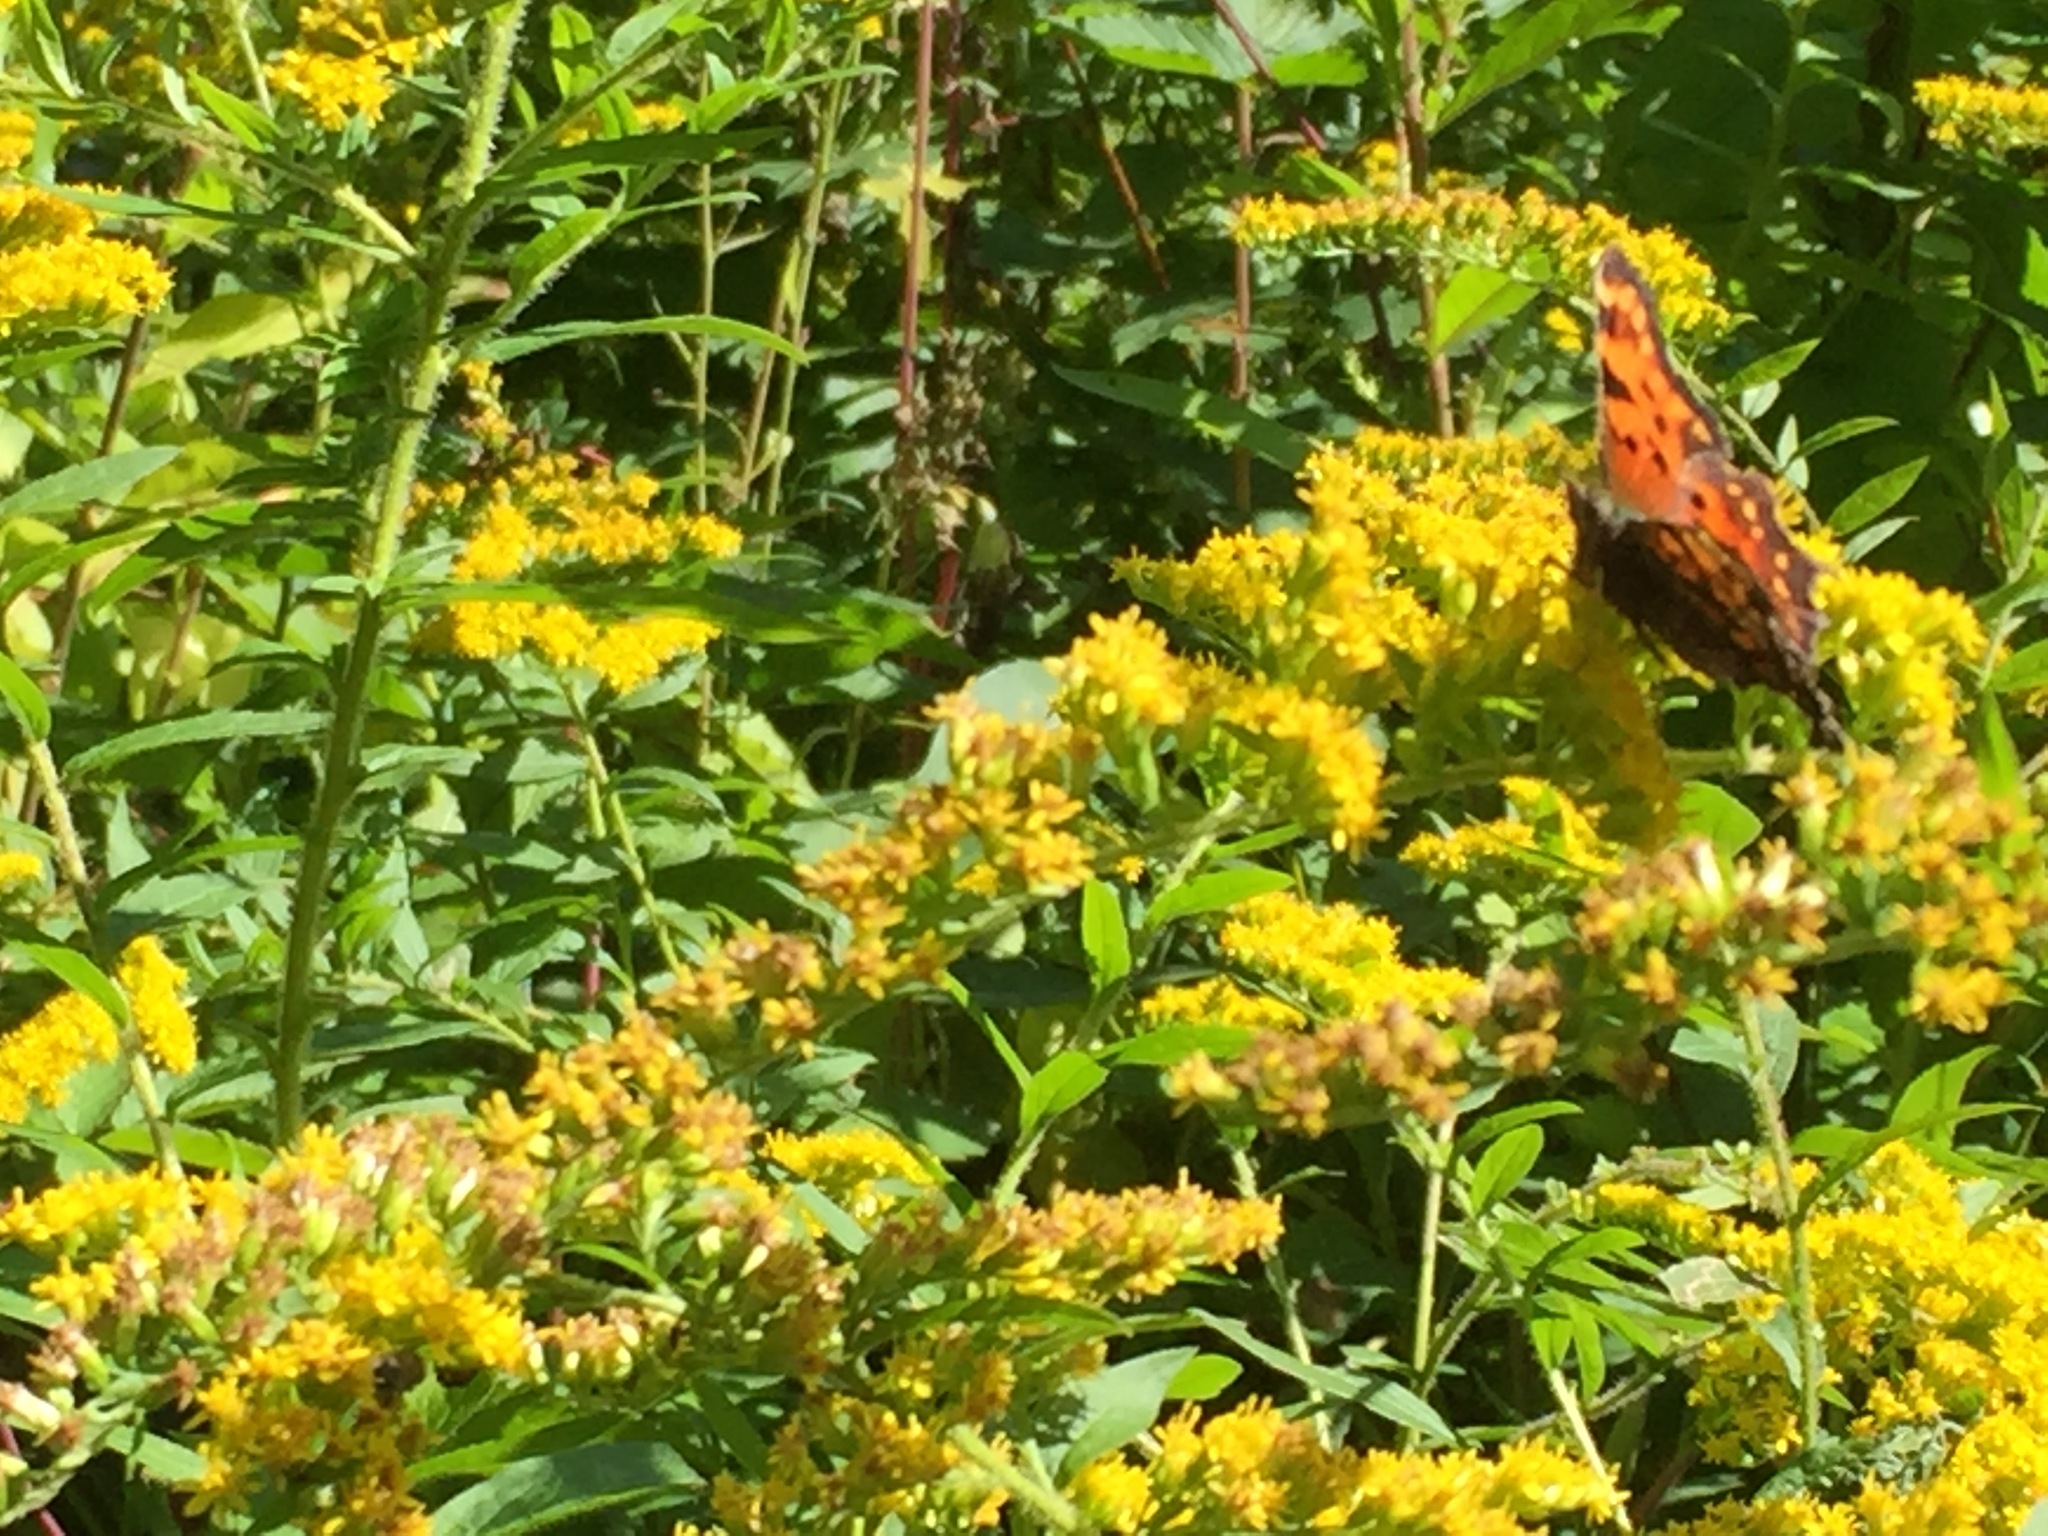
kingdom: Animalia
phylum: Arthropoda
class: Insecta
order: Lepidoptera
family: Nymphalidae
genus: Polygonia
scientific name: Polygonia faunus
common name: Green comma
